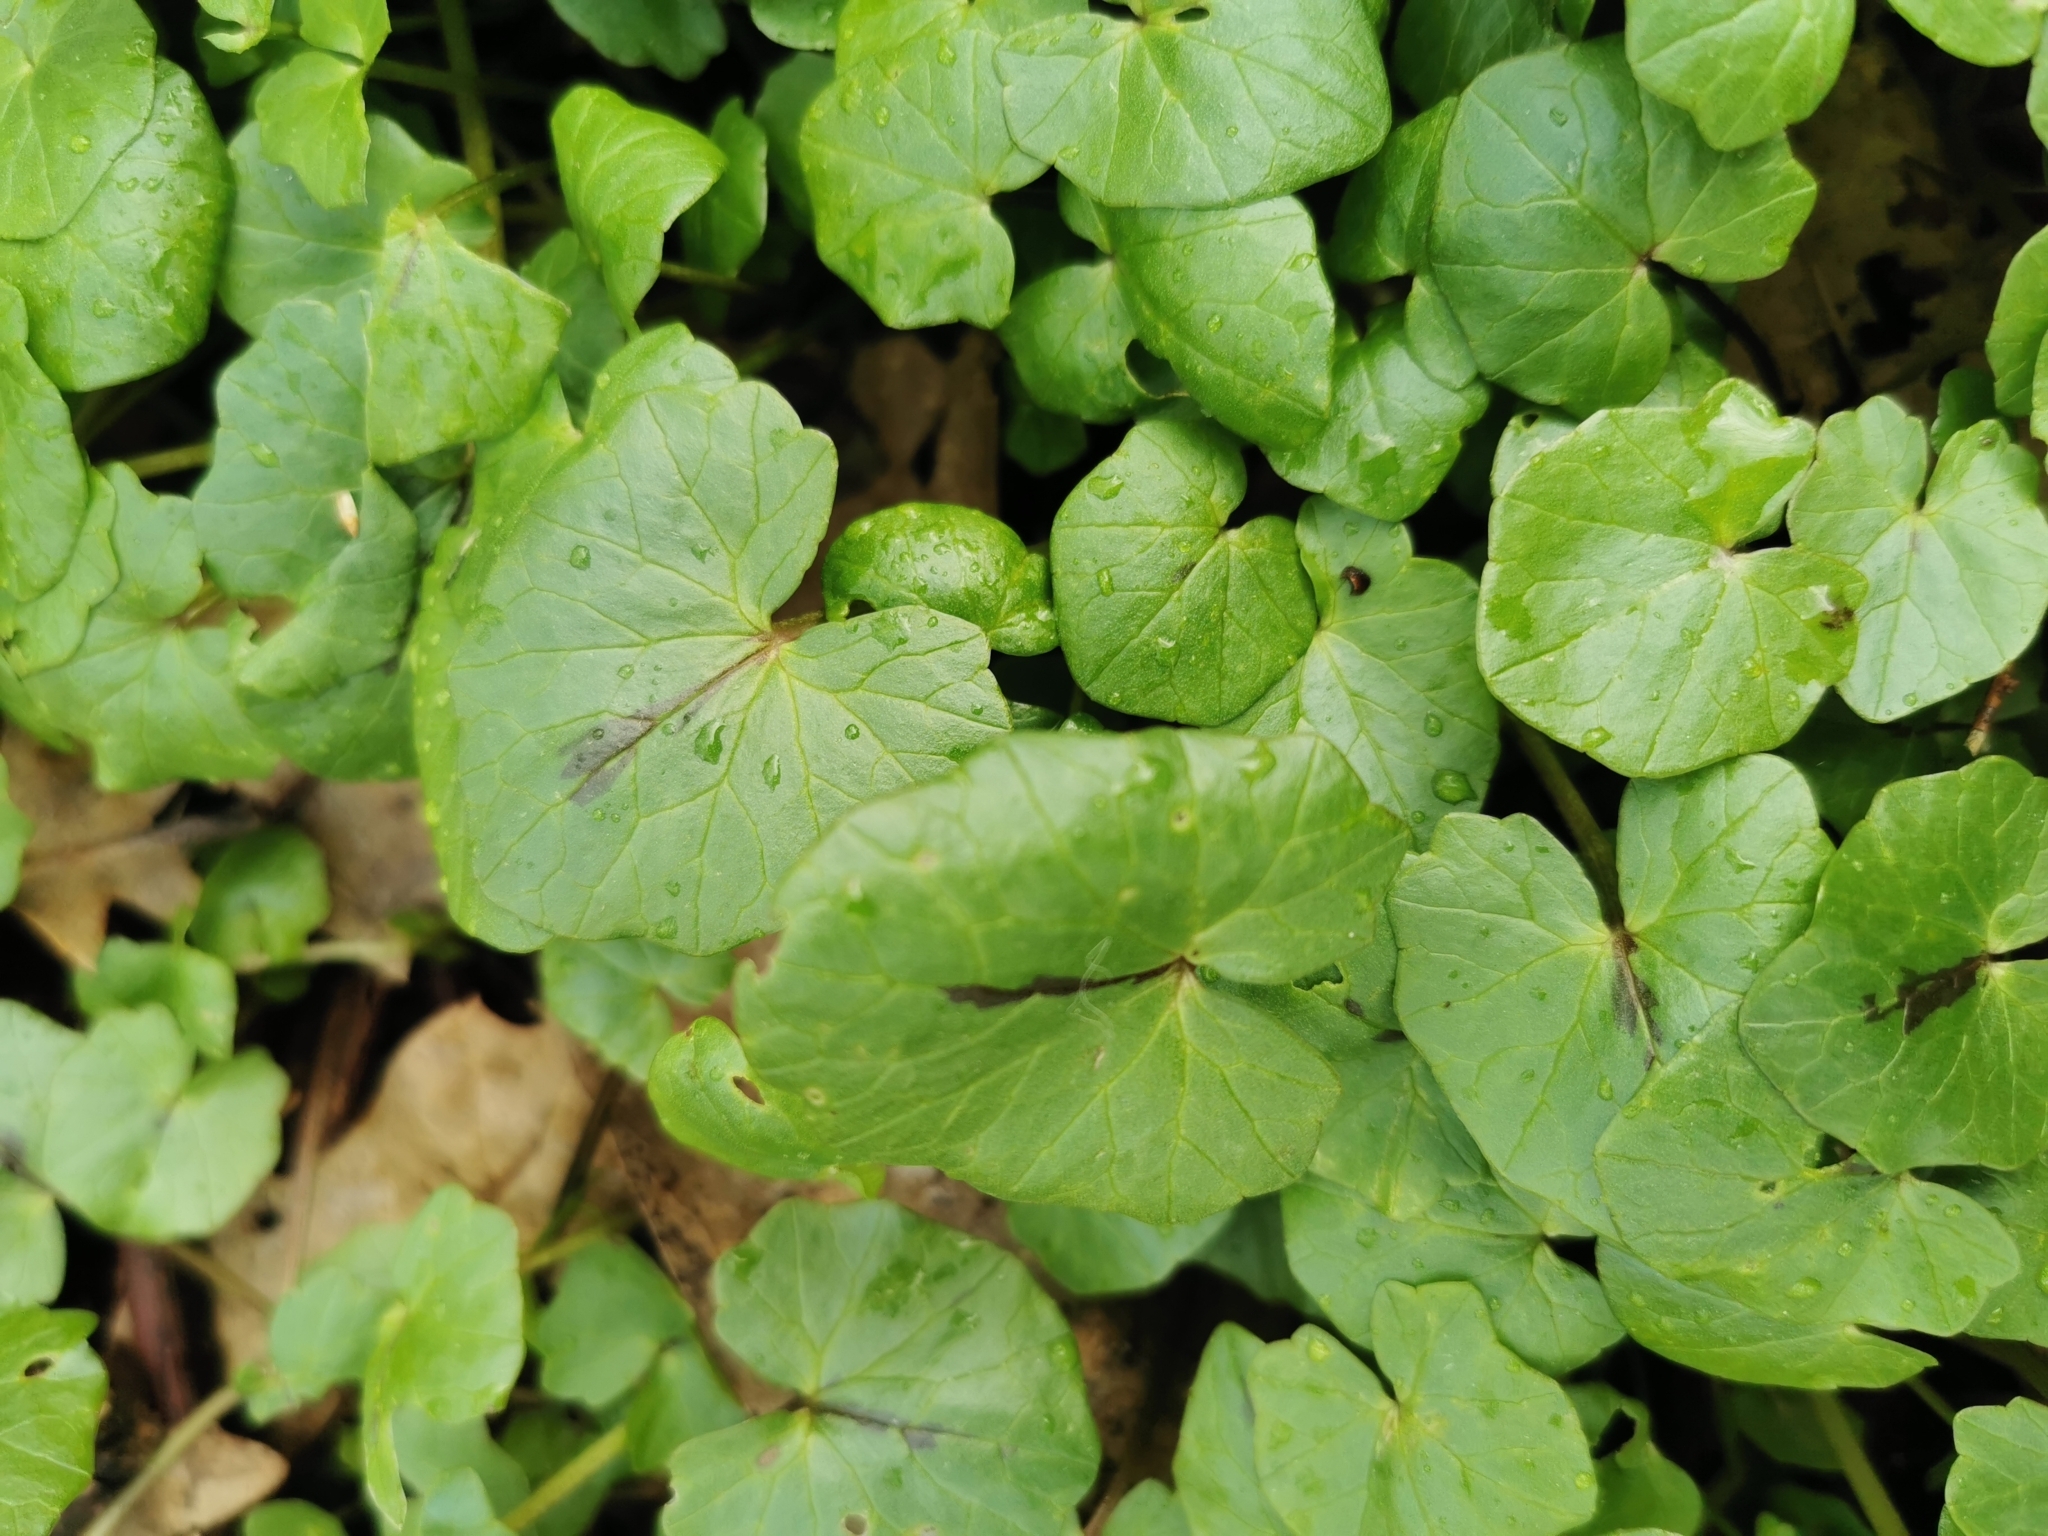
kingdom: Plantae
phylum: Tracheophyta
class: Magnoliopsida
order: Ranunculales
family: Ranunculaceae
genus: Ficaria
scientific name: Ficaria verna
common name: Lesser celandine
